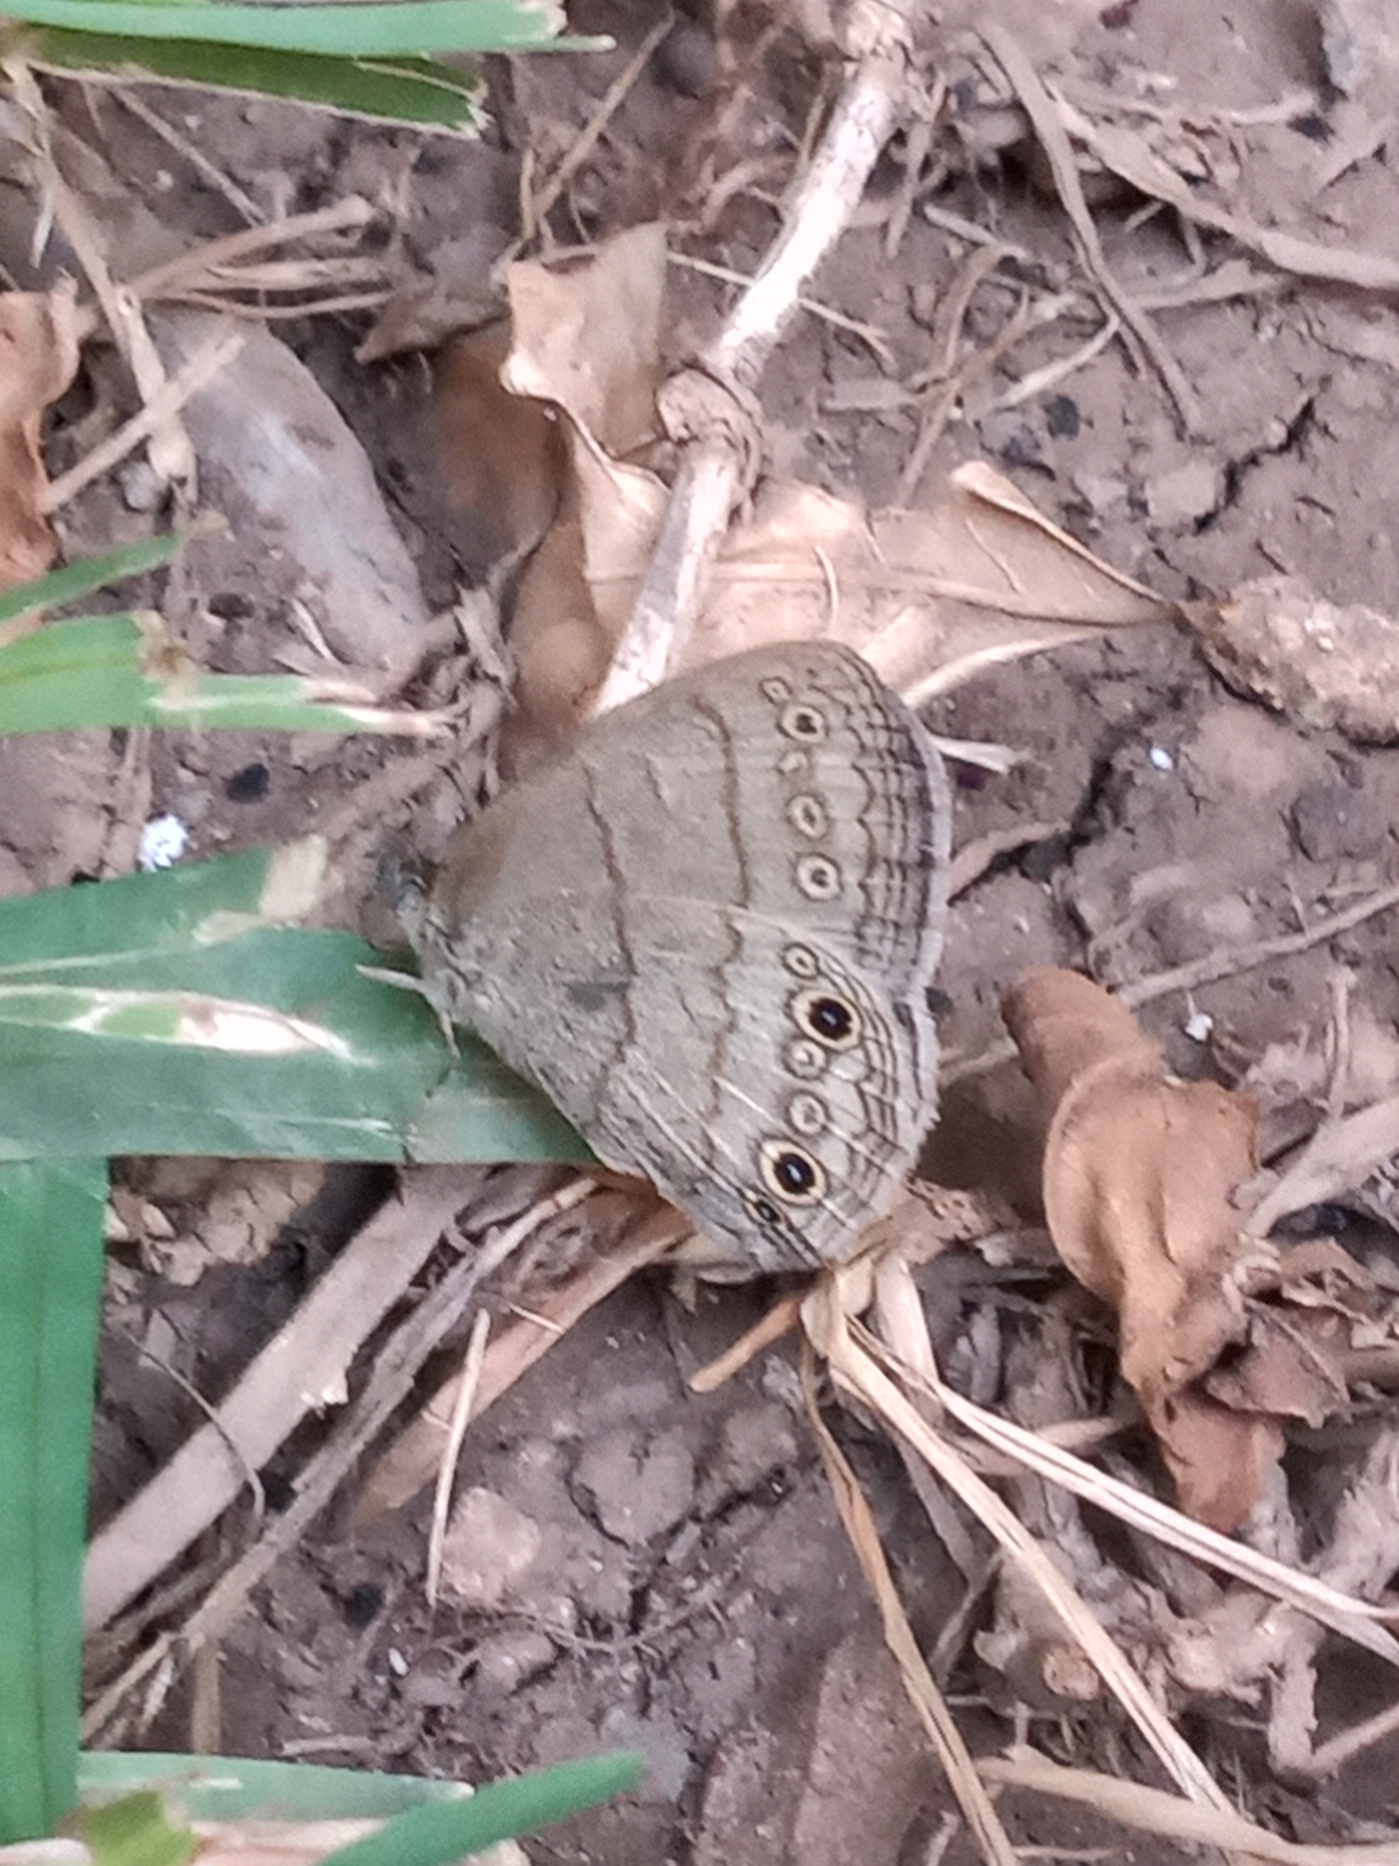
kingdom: Animalia
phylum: Arthropoda
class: Insecta
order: Lepidoptera
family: Nymphalidae
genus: Hermeuptychia
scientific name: Hermeuptychia hermybius
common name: South texas satyr
